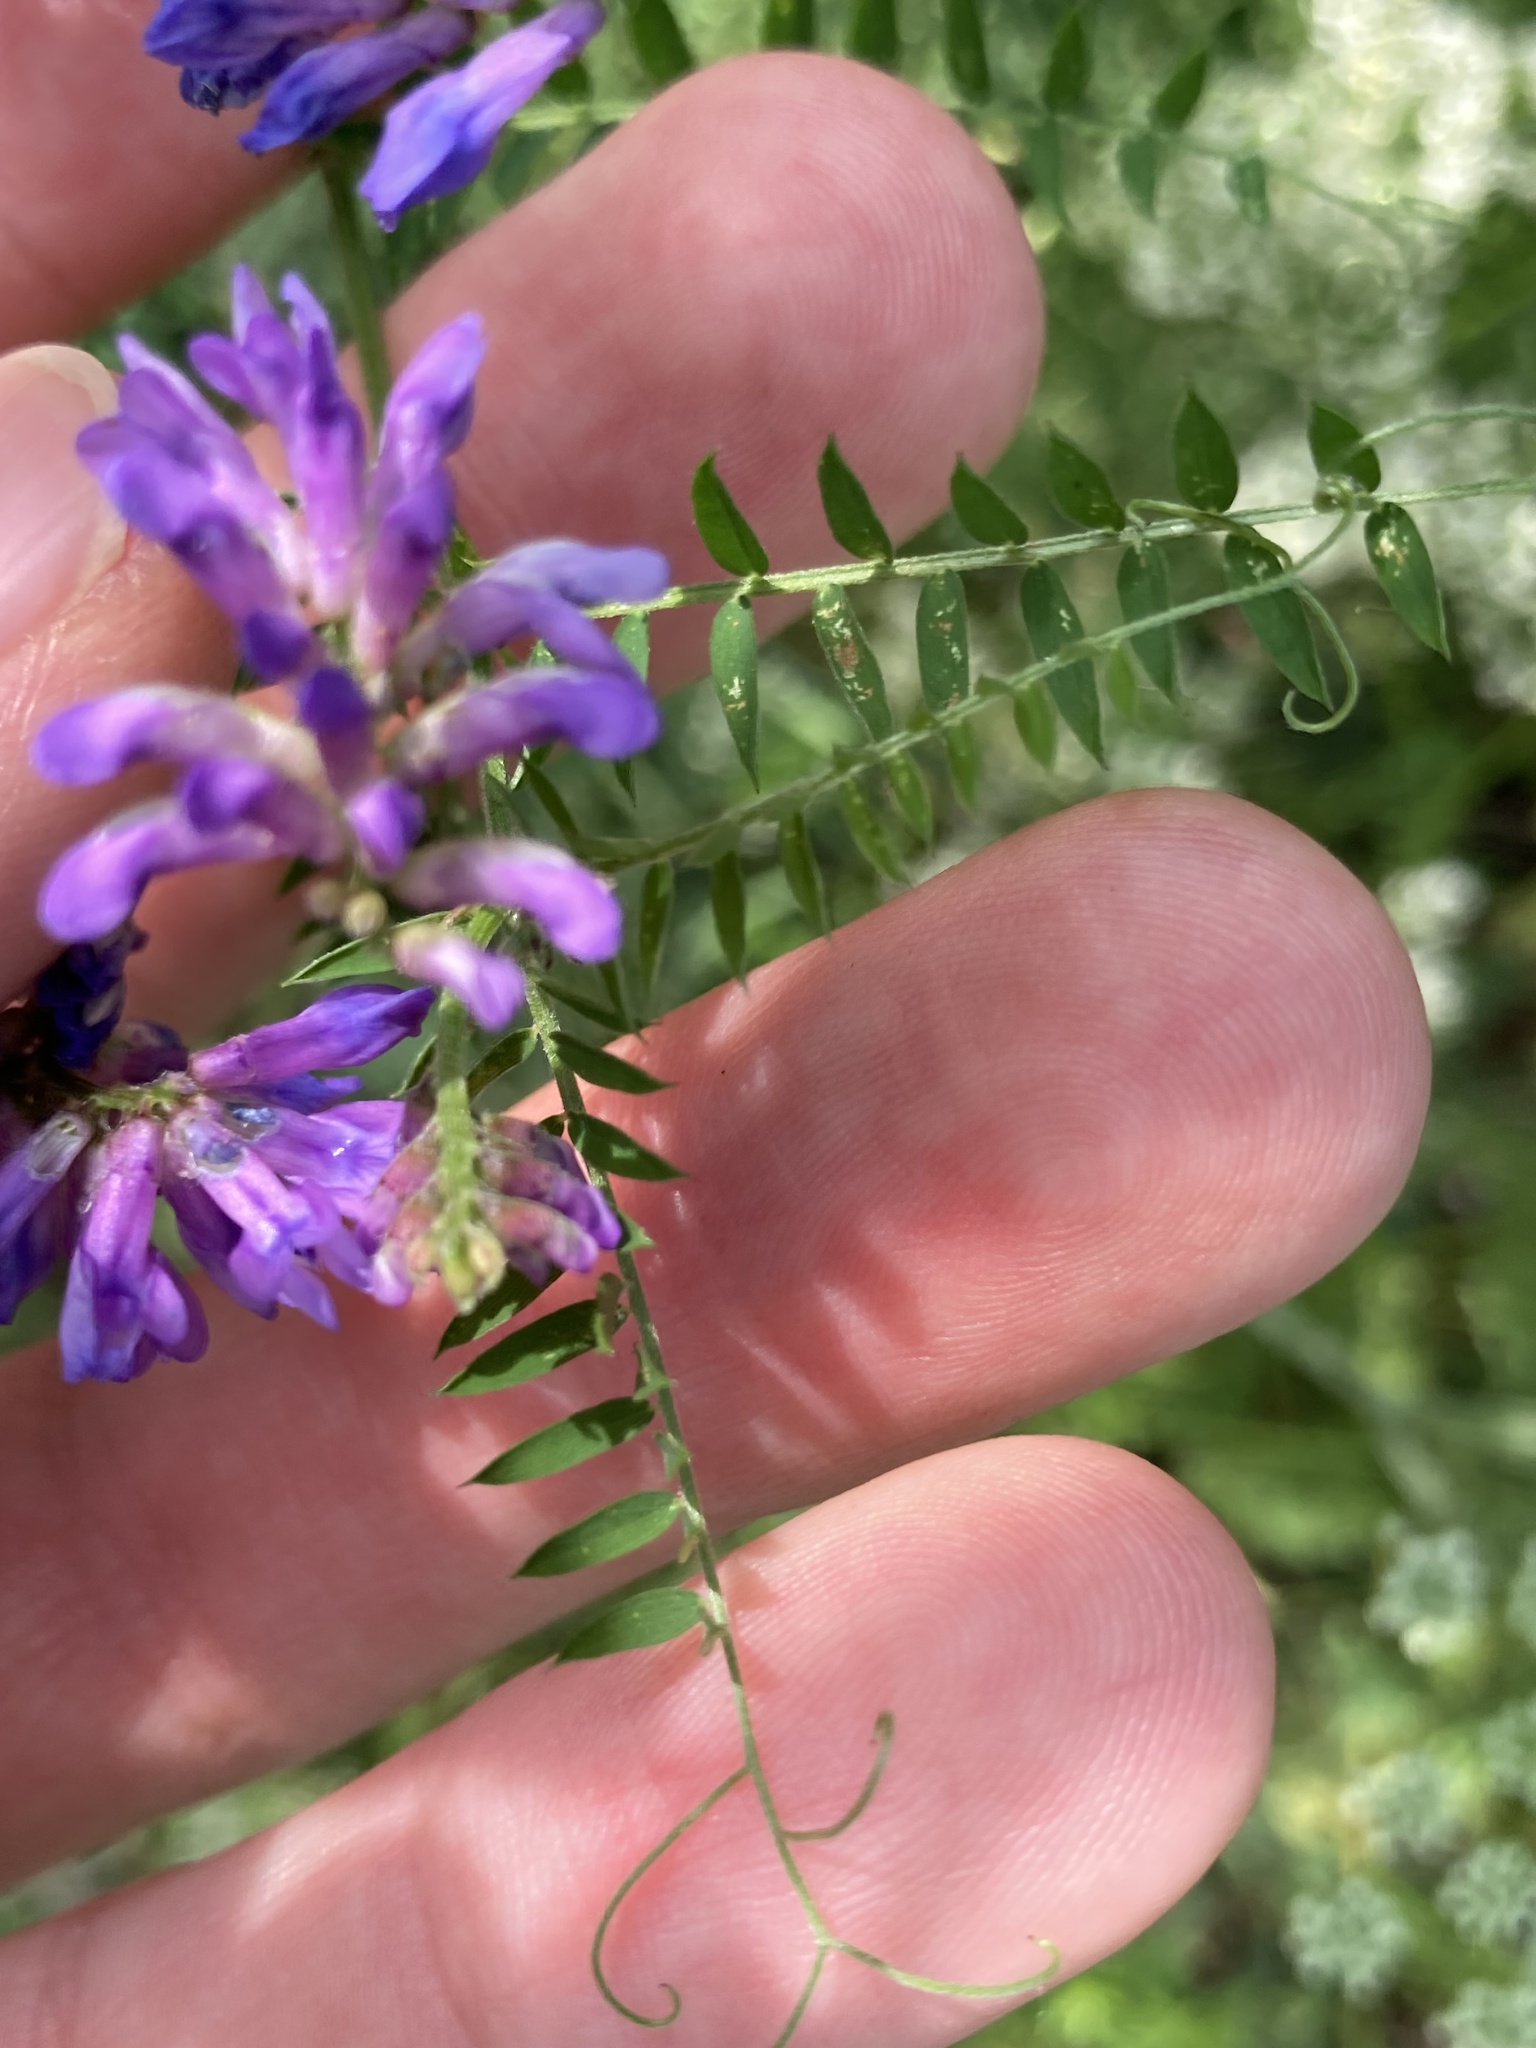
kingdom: Plantae
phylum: Tracheophyta
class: Magnoliopsida
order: Fabales
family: Fabaceae
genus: Vicia
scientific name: Vicia cracca
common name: Bird vetch
